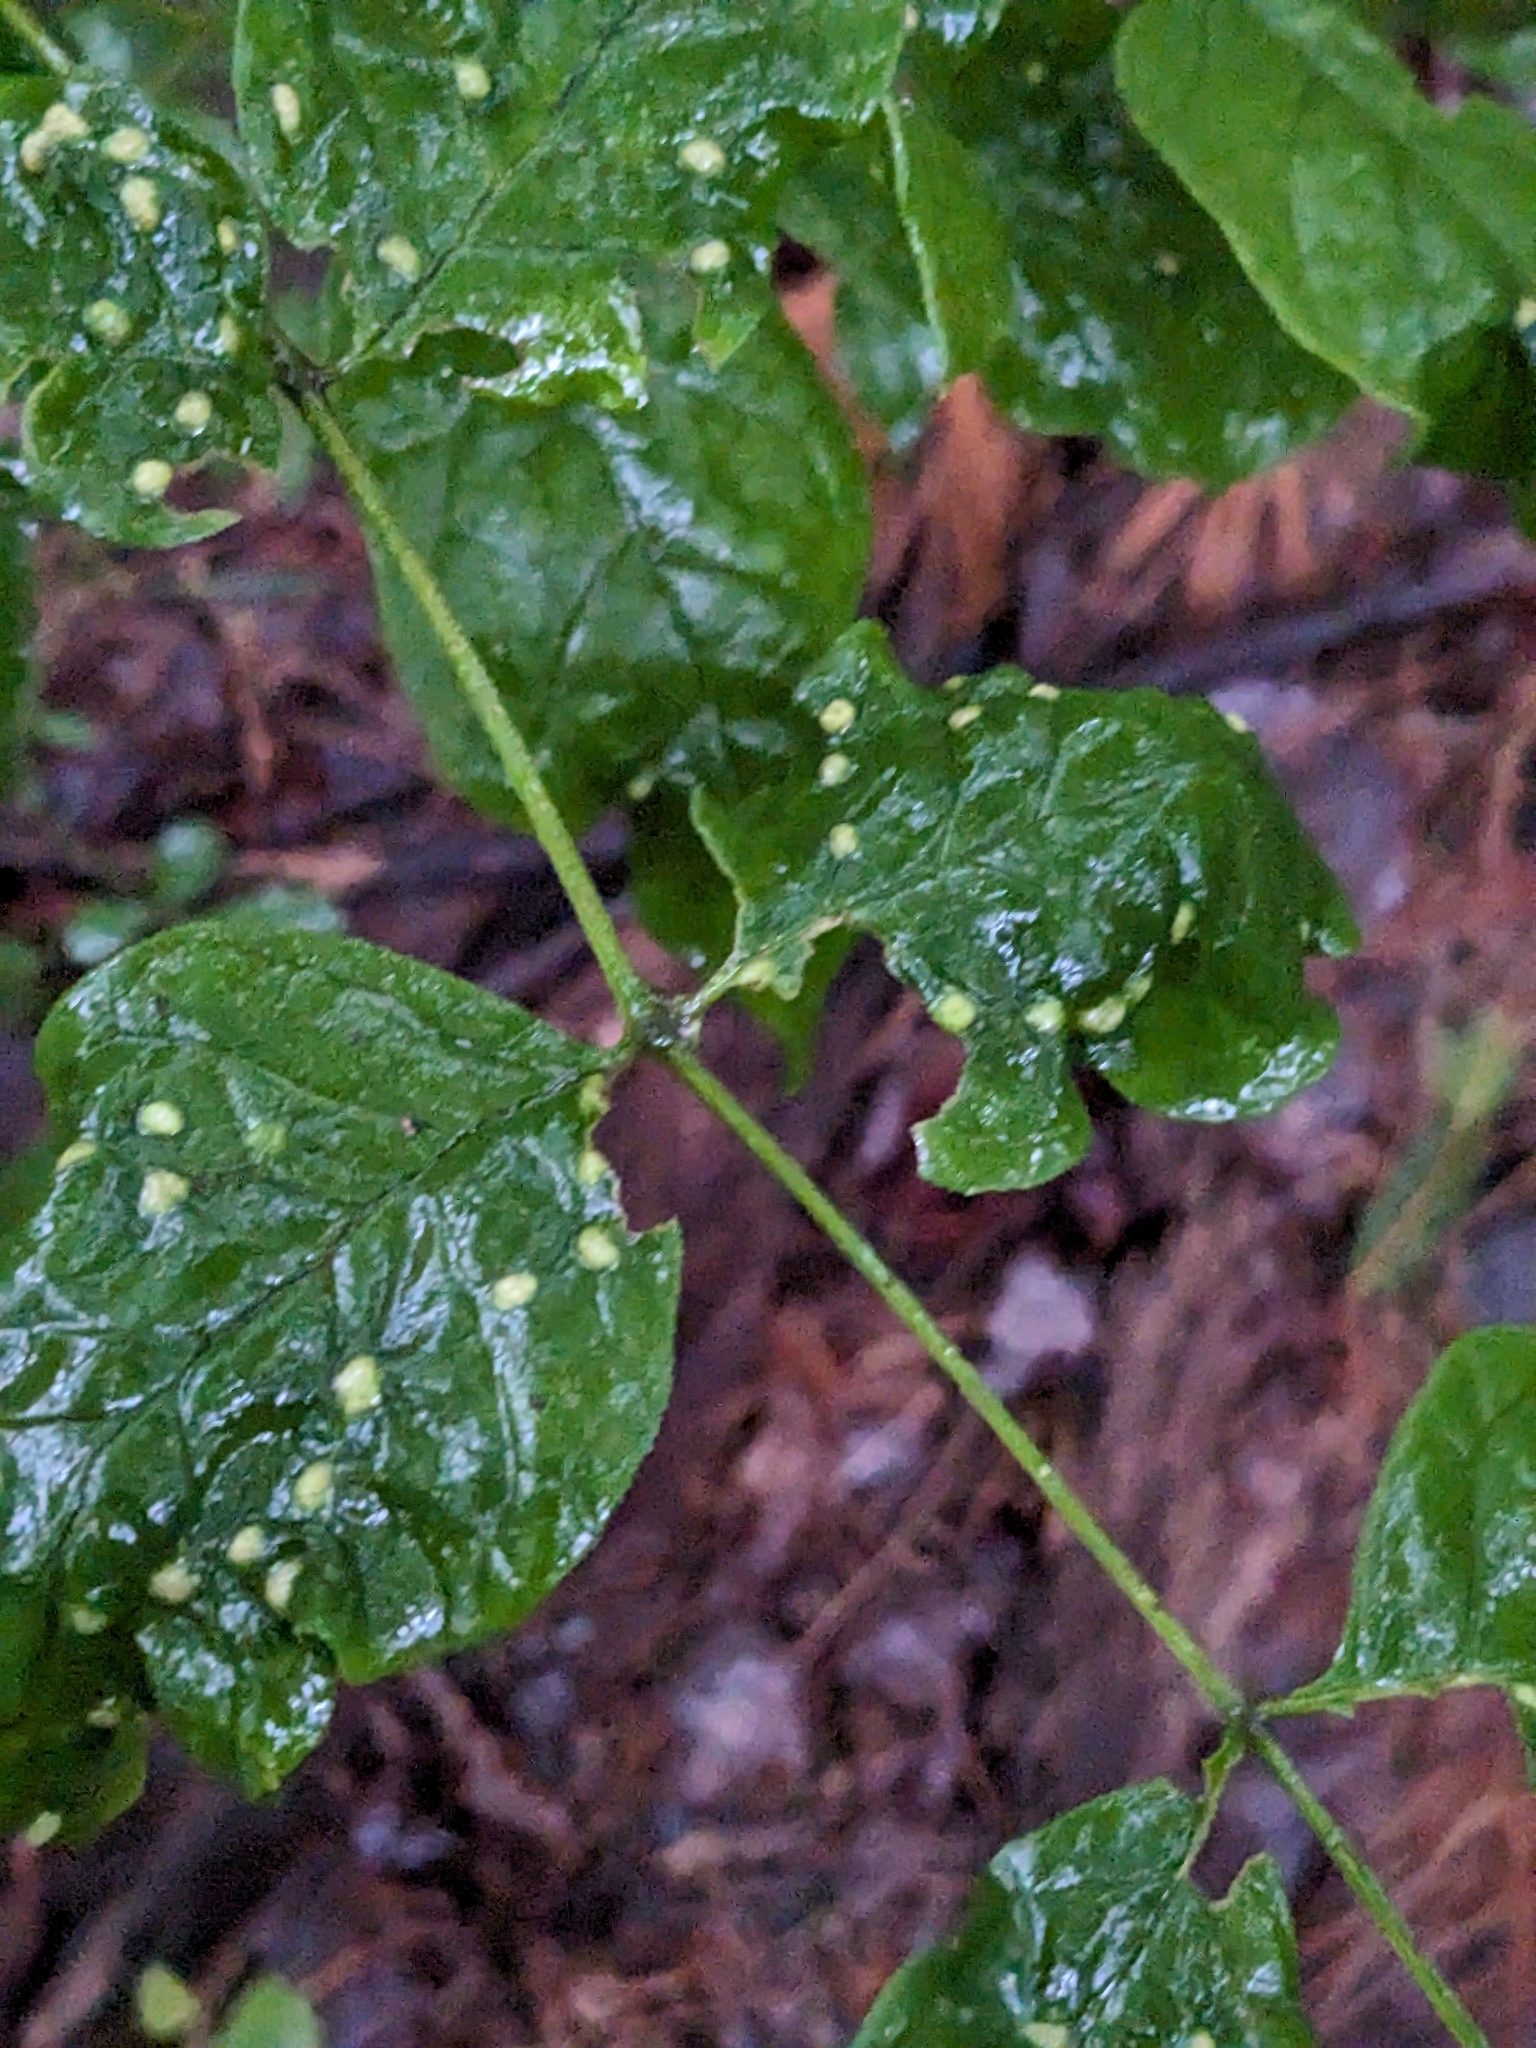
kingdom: Animalia
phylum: Arthropoda
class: Arachnida
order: Trombidiformes
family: Eriophyidae
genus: Aceria
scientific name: Aceria fraxinicola
